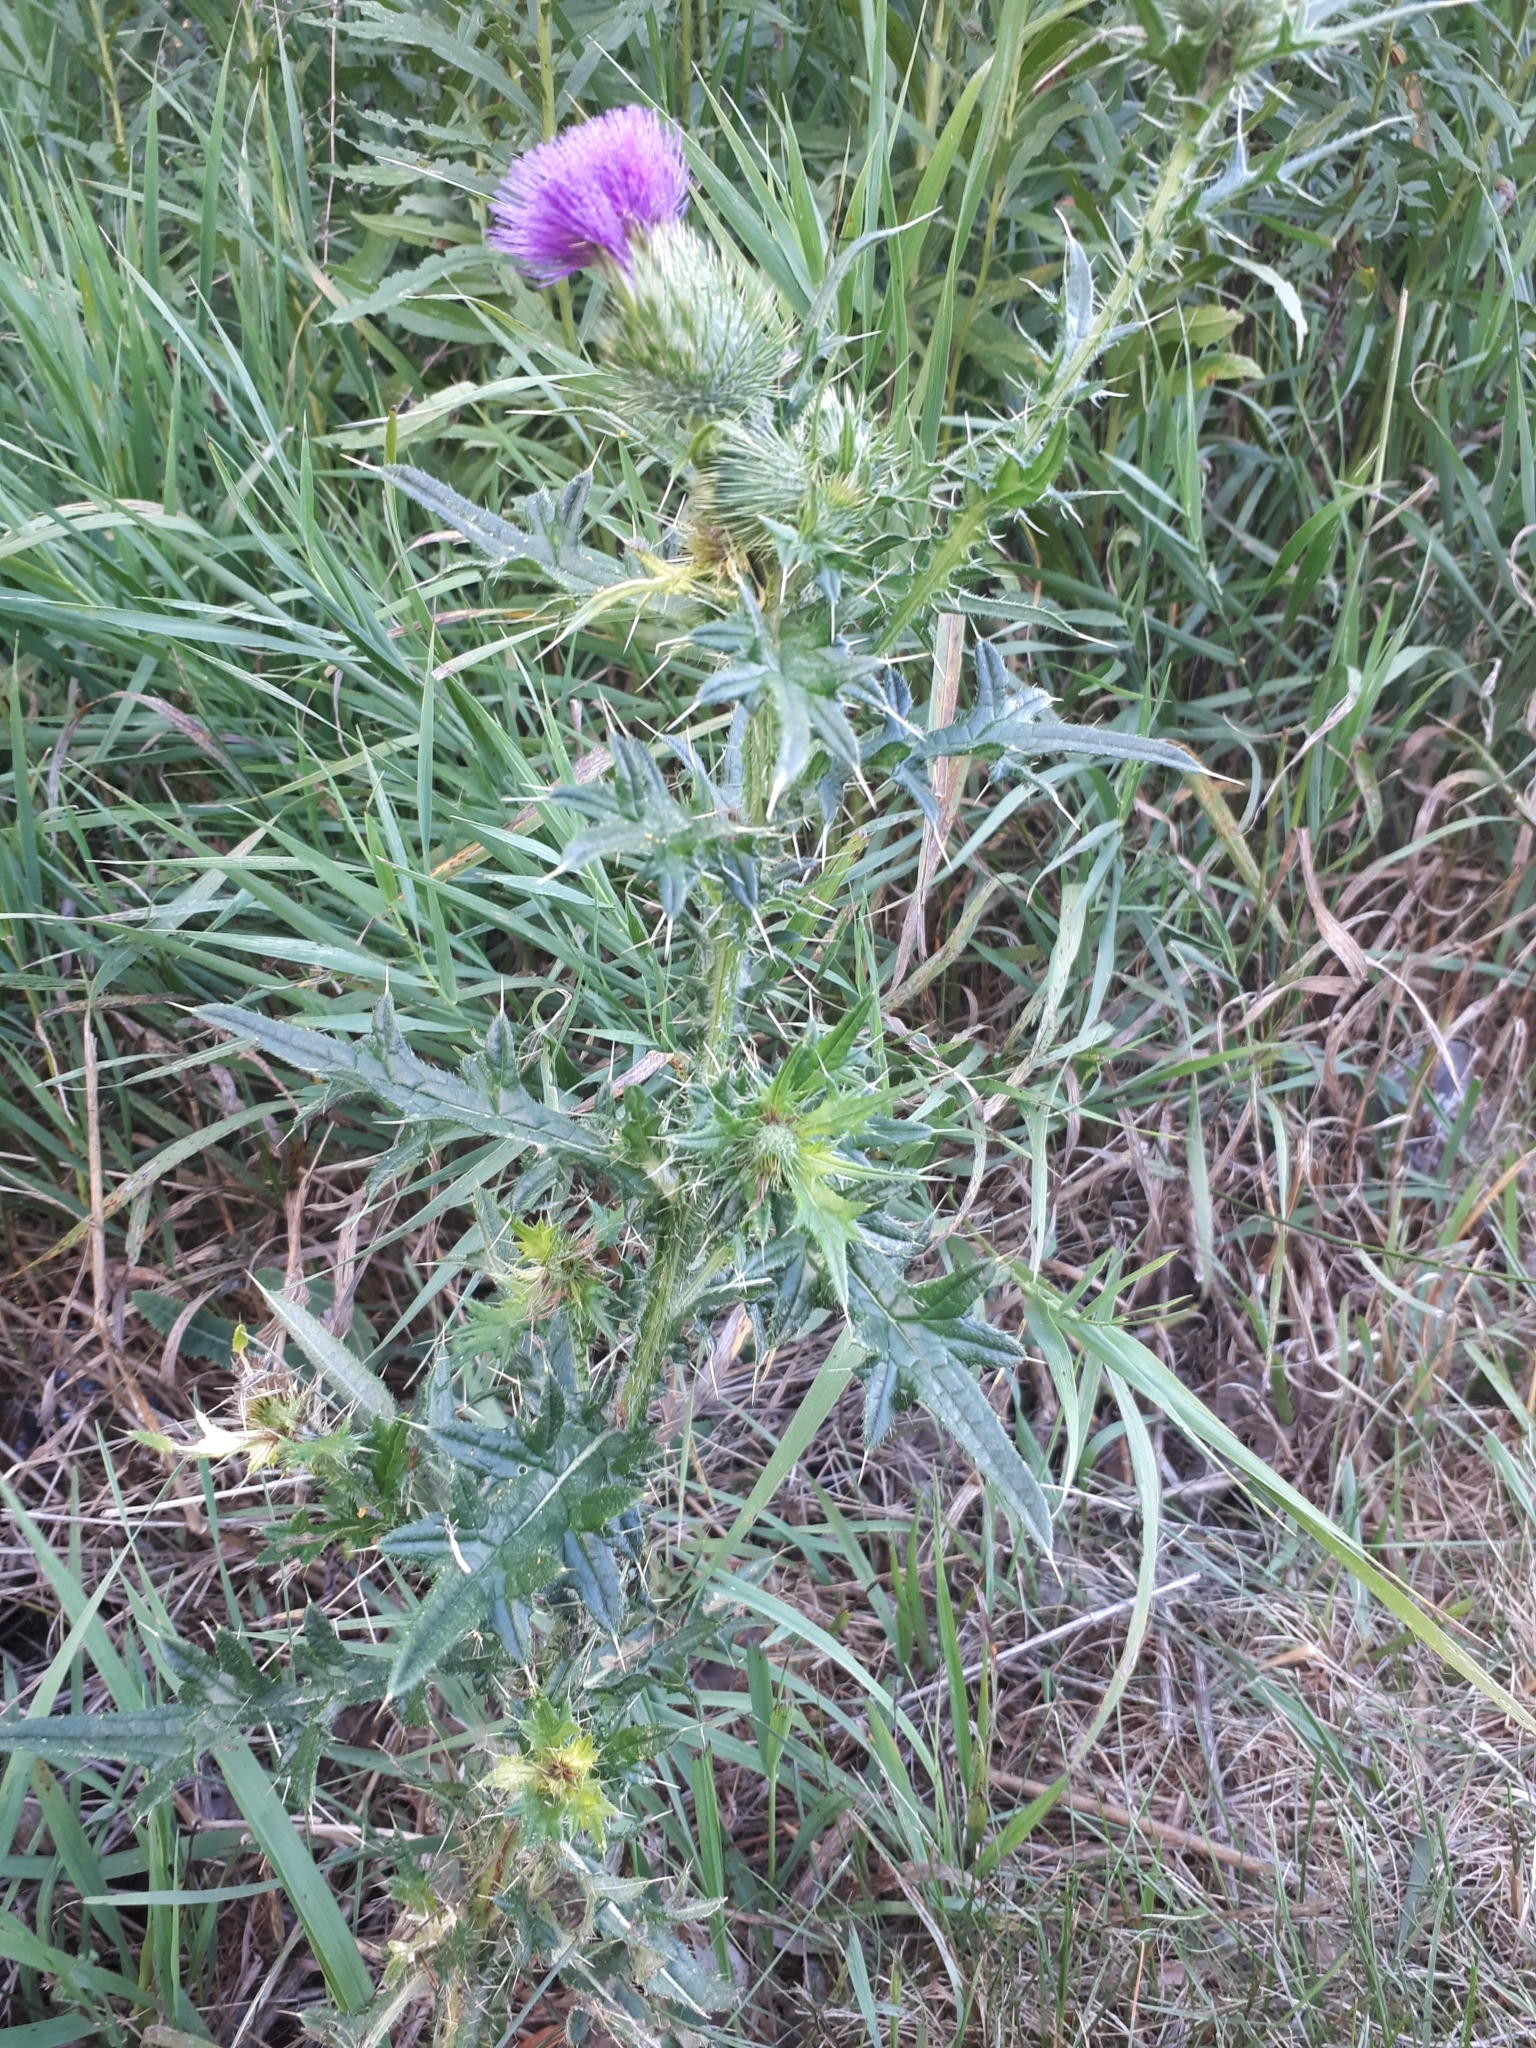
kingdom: Plantae
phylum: Tracheophyta
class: Magnoliopsida
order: Asterales
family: Asteraceae
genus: Cirsium
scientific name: Cirsium vulgare
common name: Bull thistle
